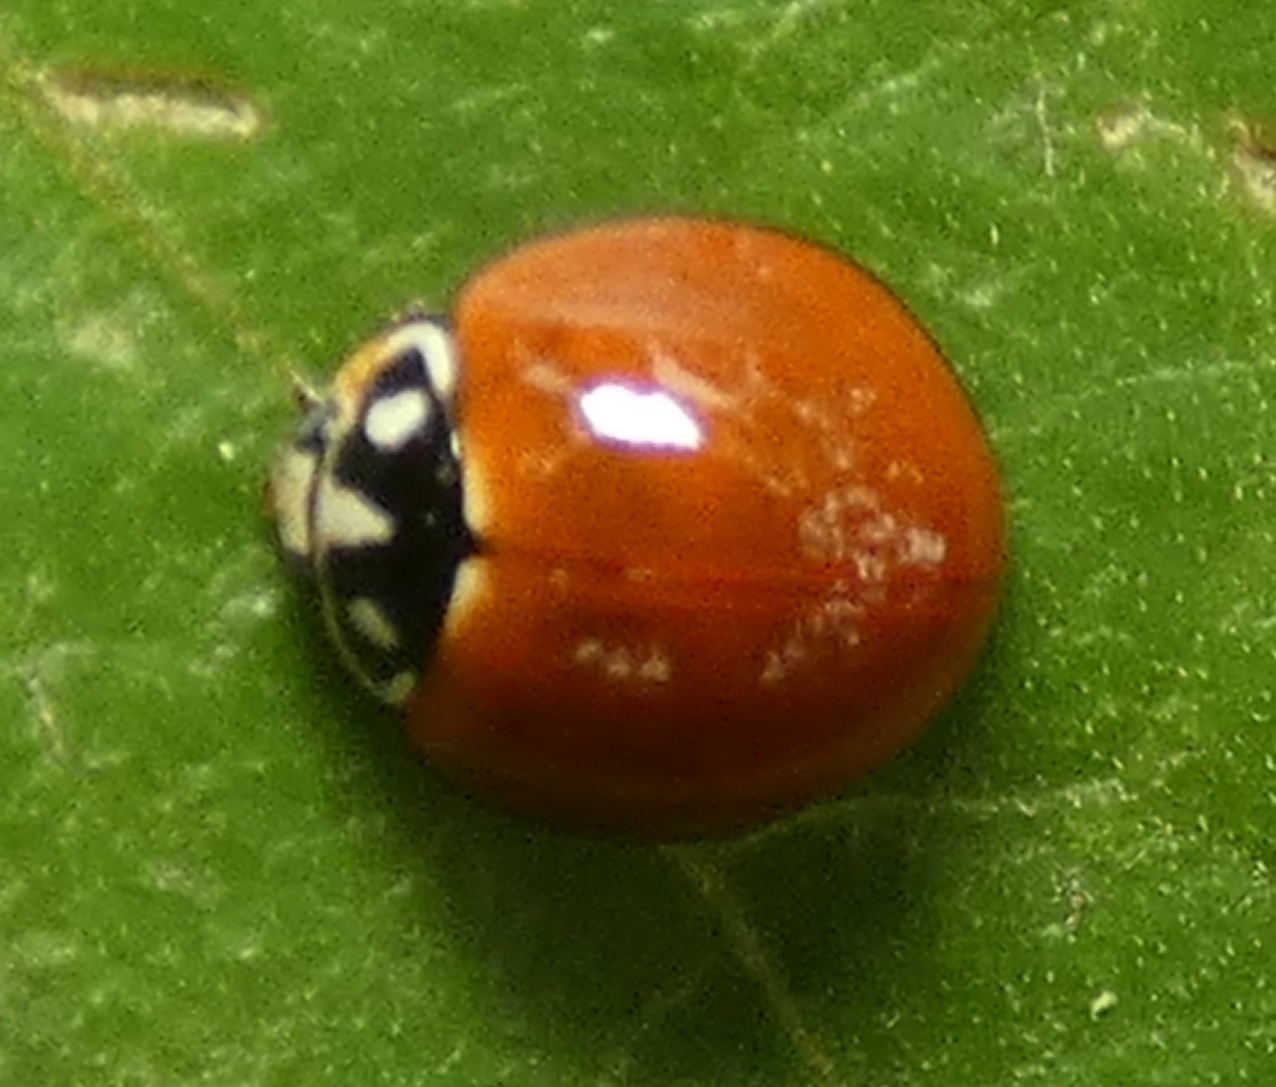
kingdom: Animalia
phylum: Arthropoda
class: Insecta
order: Coleoptera
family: Coccinellidae
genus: Cycloneda
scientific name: Cycloneda sanguinea
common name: Ladybird beetle
